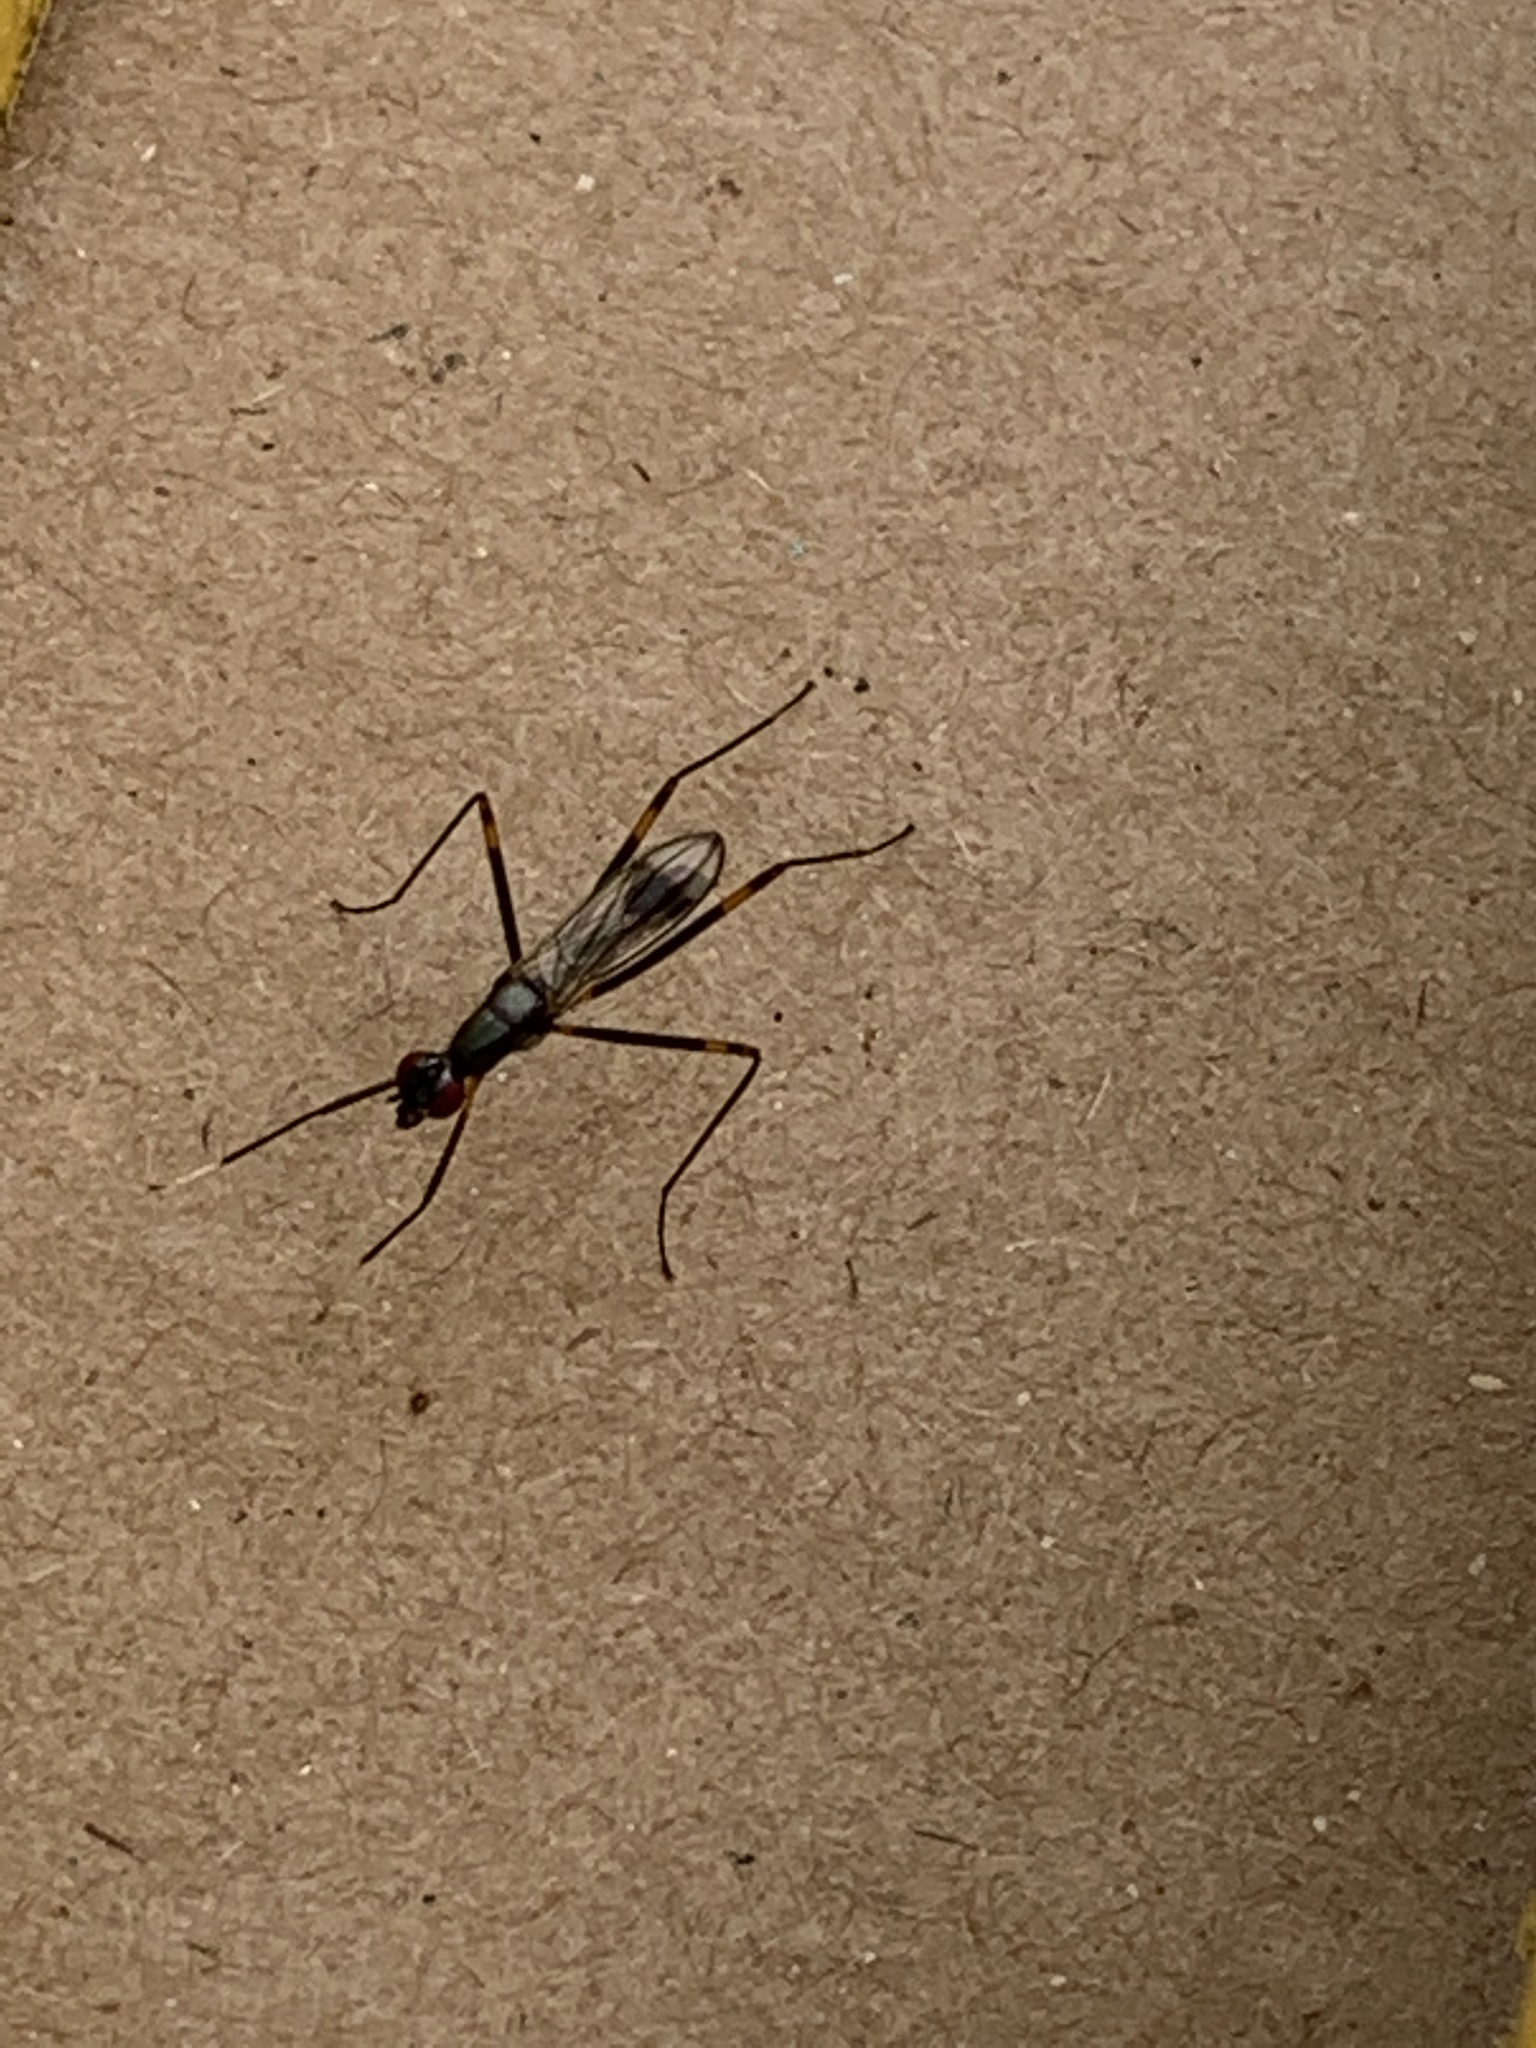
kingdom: Animalia
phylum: Arthropoda
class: Insecta
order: Diptera
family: Micropezidae
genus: Rainieria
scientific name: Rainieria antennaepes
